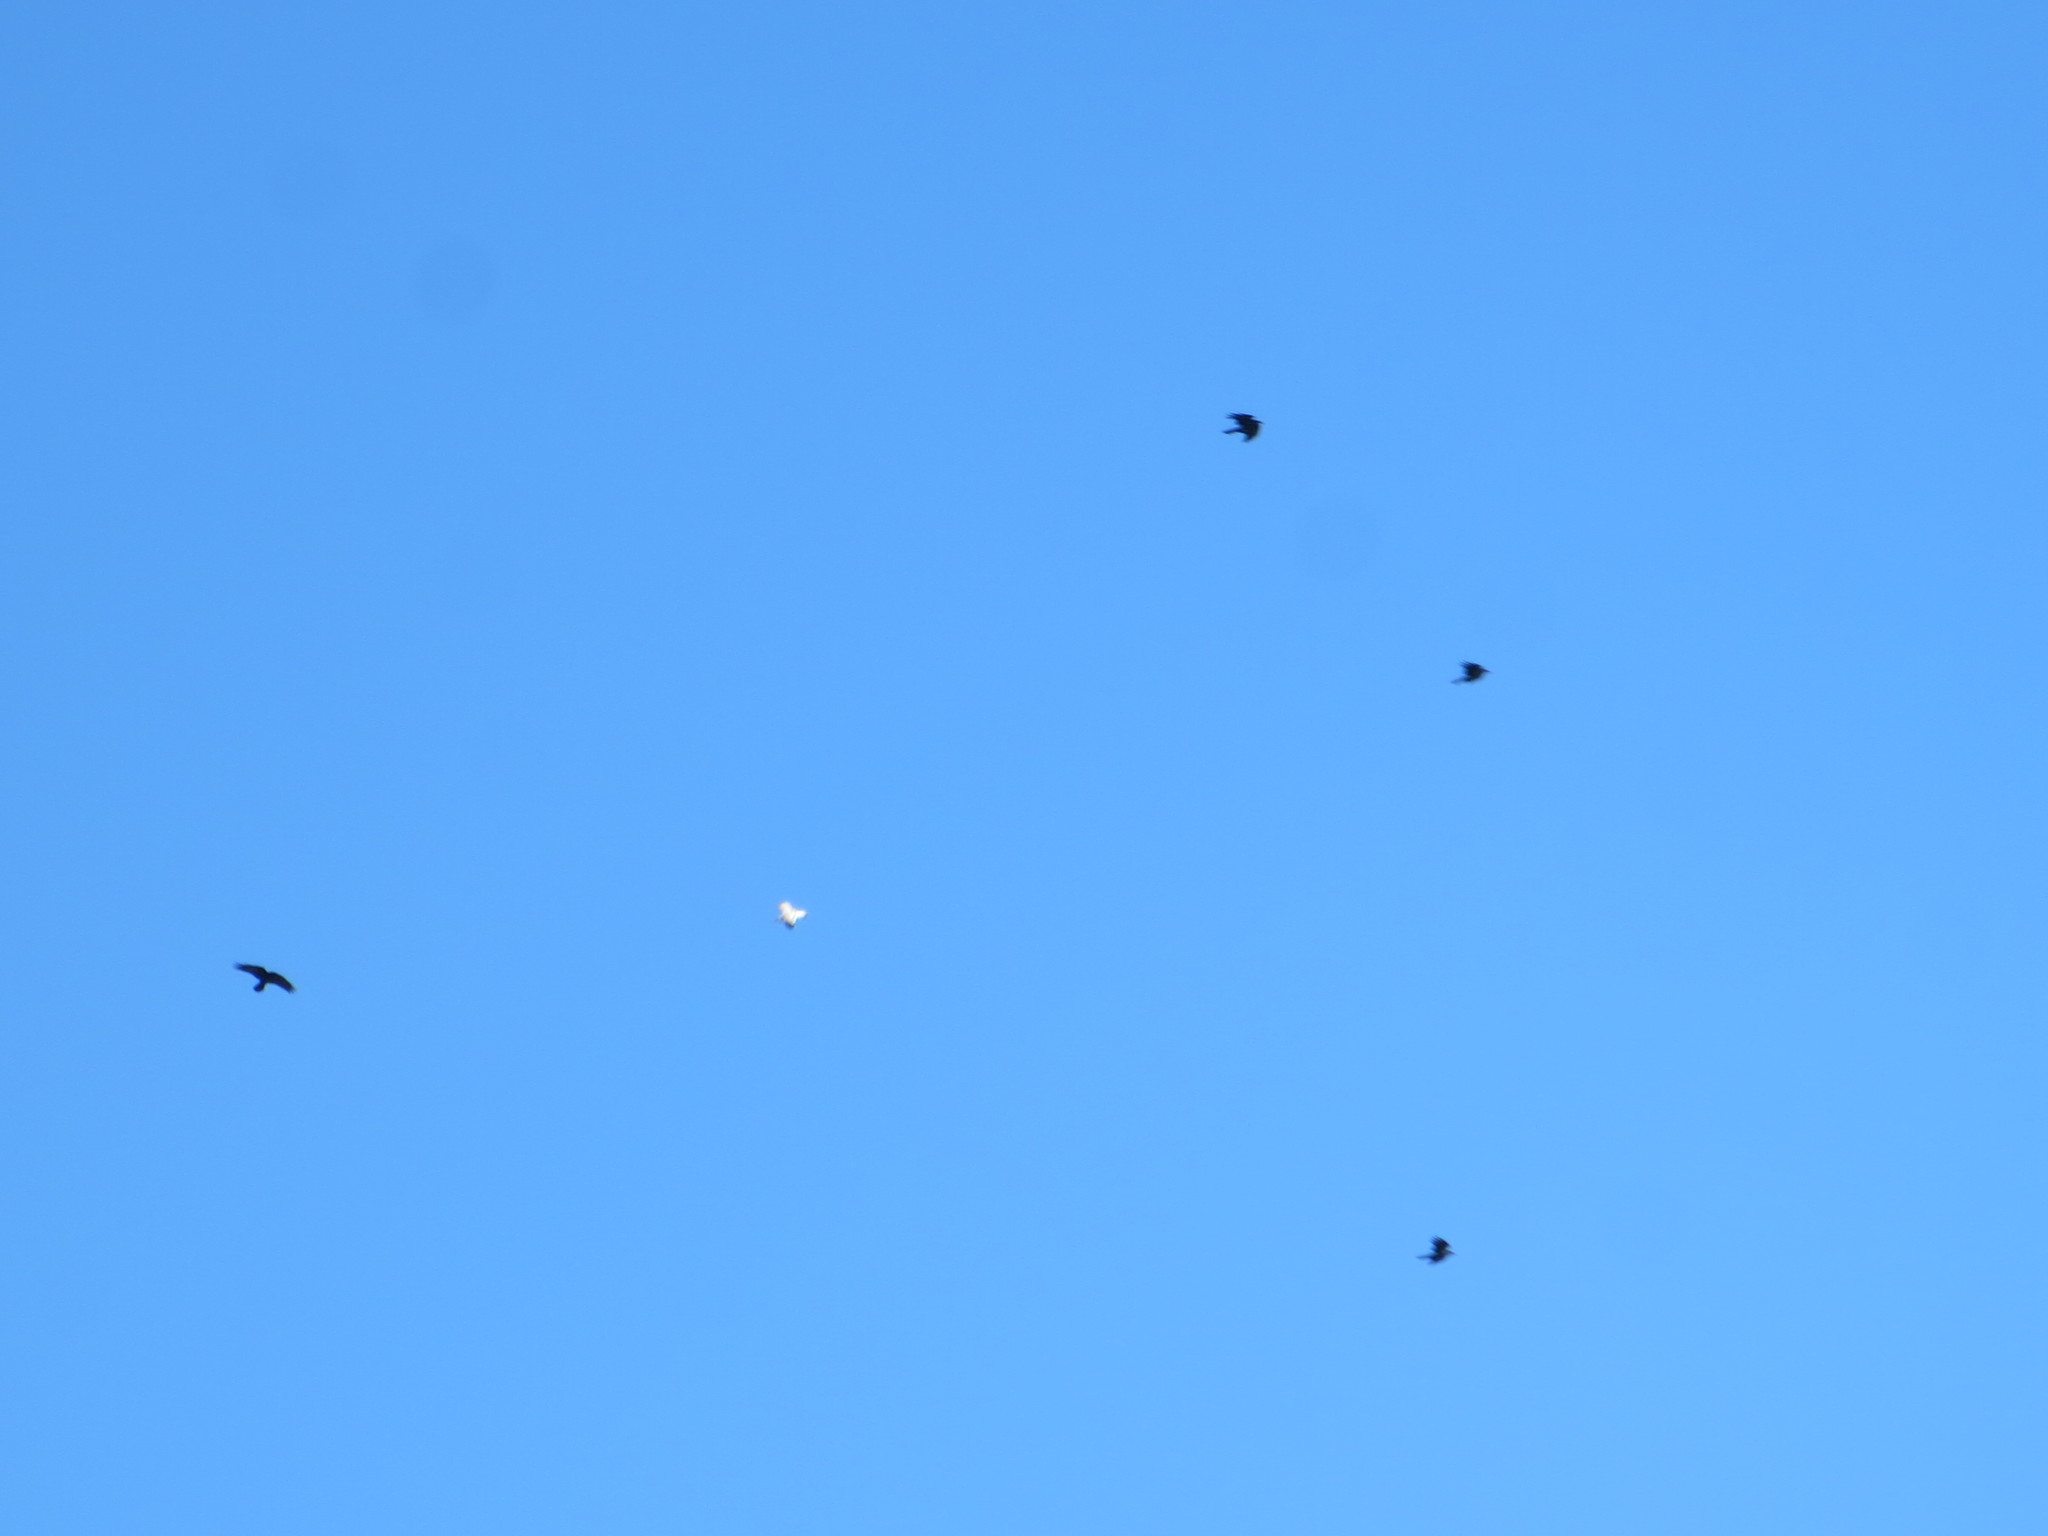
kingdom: Animalia
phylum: Chordata
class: Aves
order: Passeriformes
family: Corvidae
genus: Corvus
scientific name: Corvus ossifragus
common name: Fish crow
